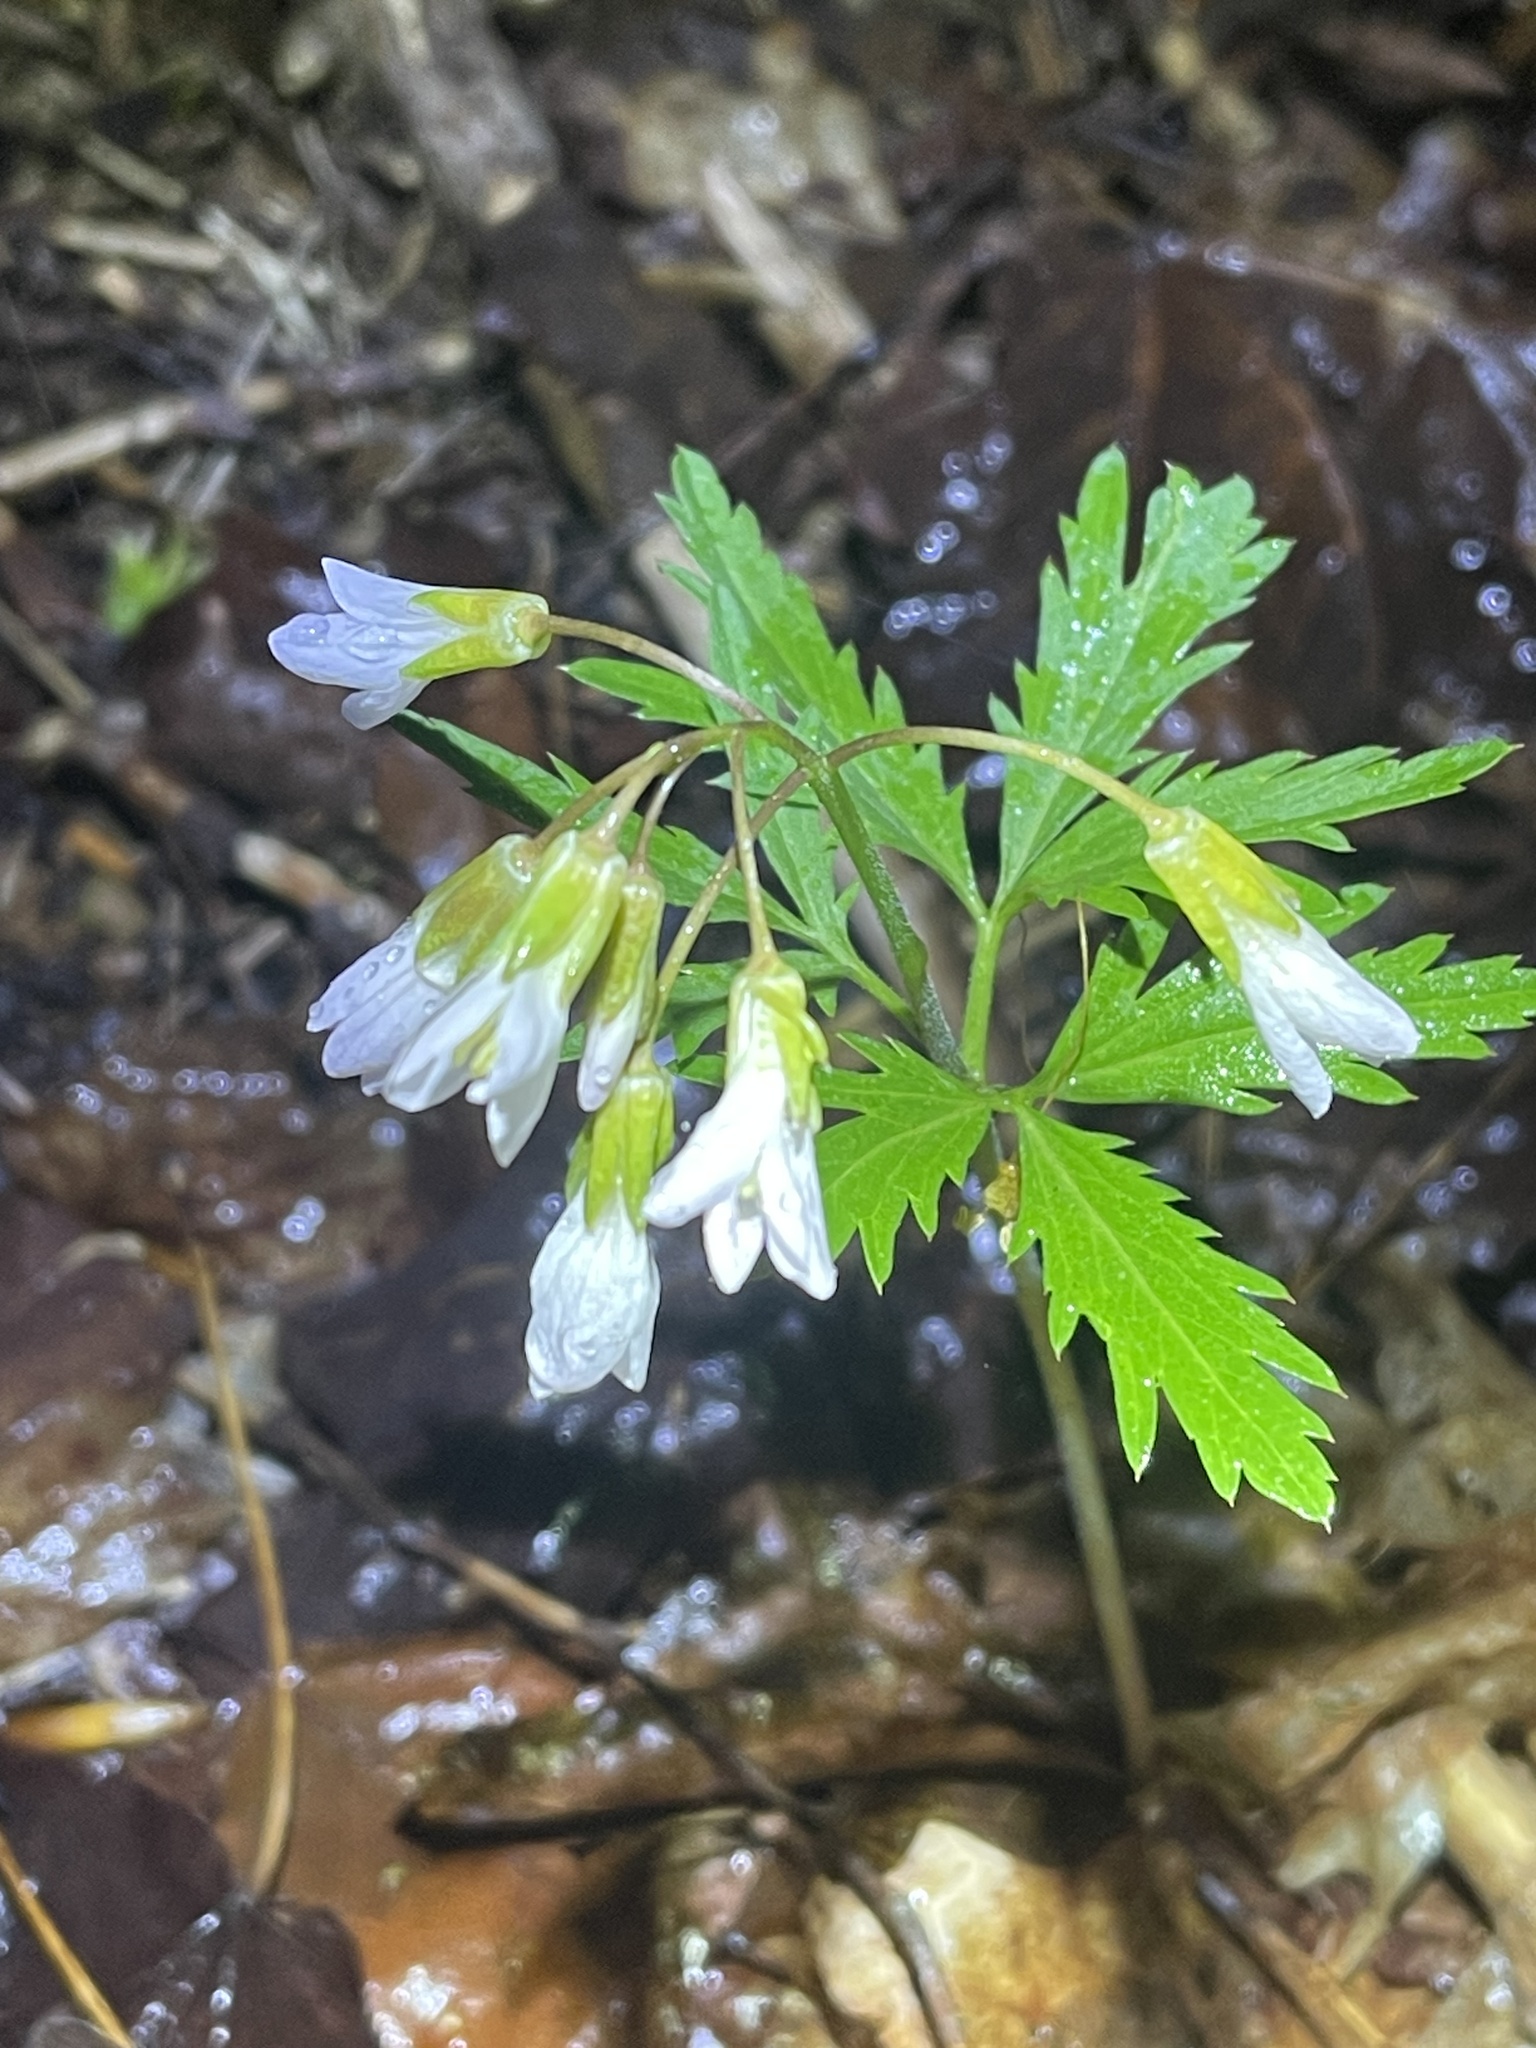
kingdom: Plantae
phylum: Tracheophyta
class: Magnoliopsida
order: Brassicales
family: Brassicaceae
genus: Cardamine
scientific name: Cardamine concatenata
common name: Cut-leaf toothcup
